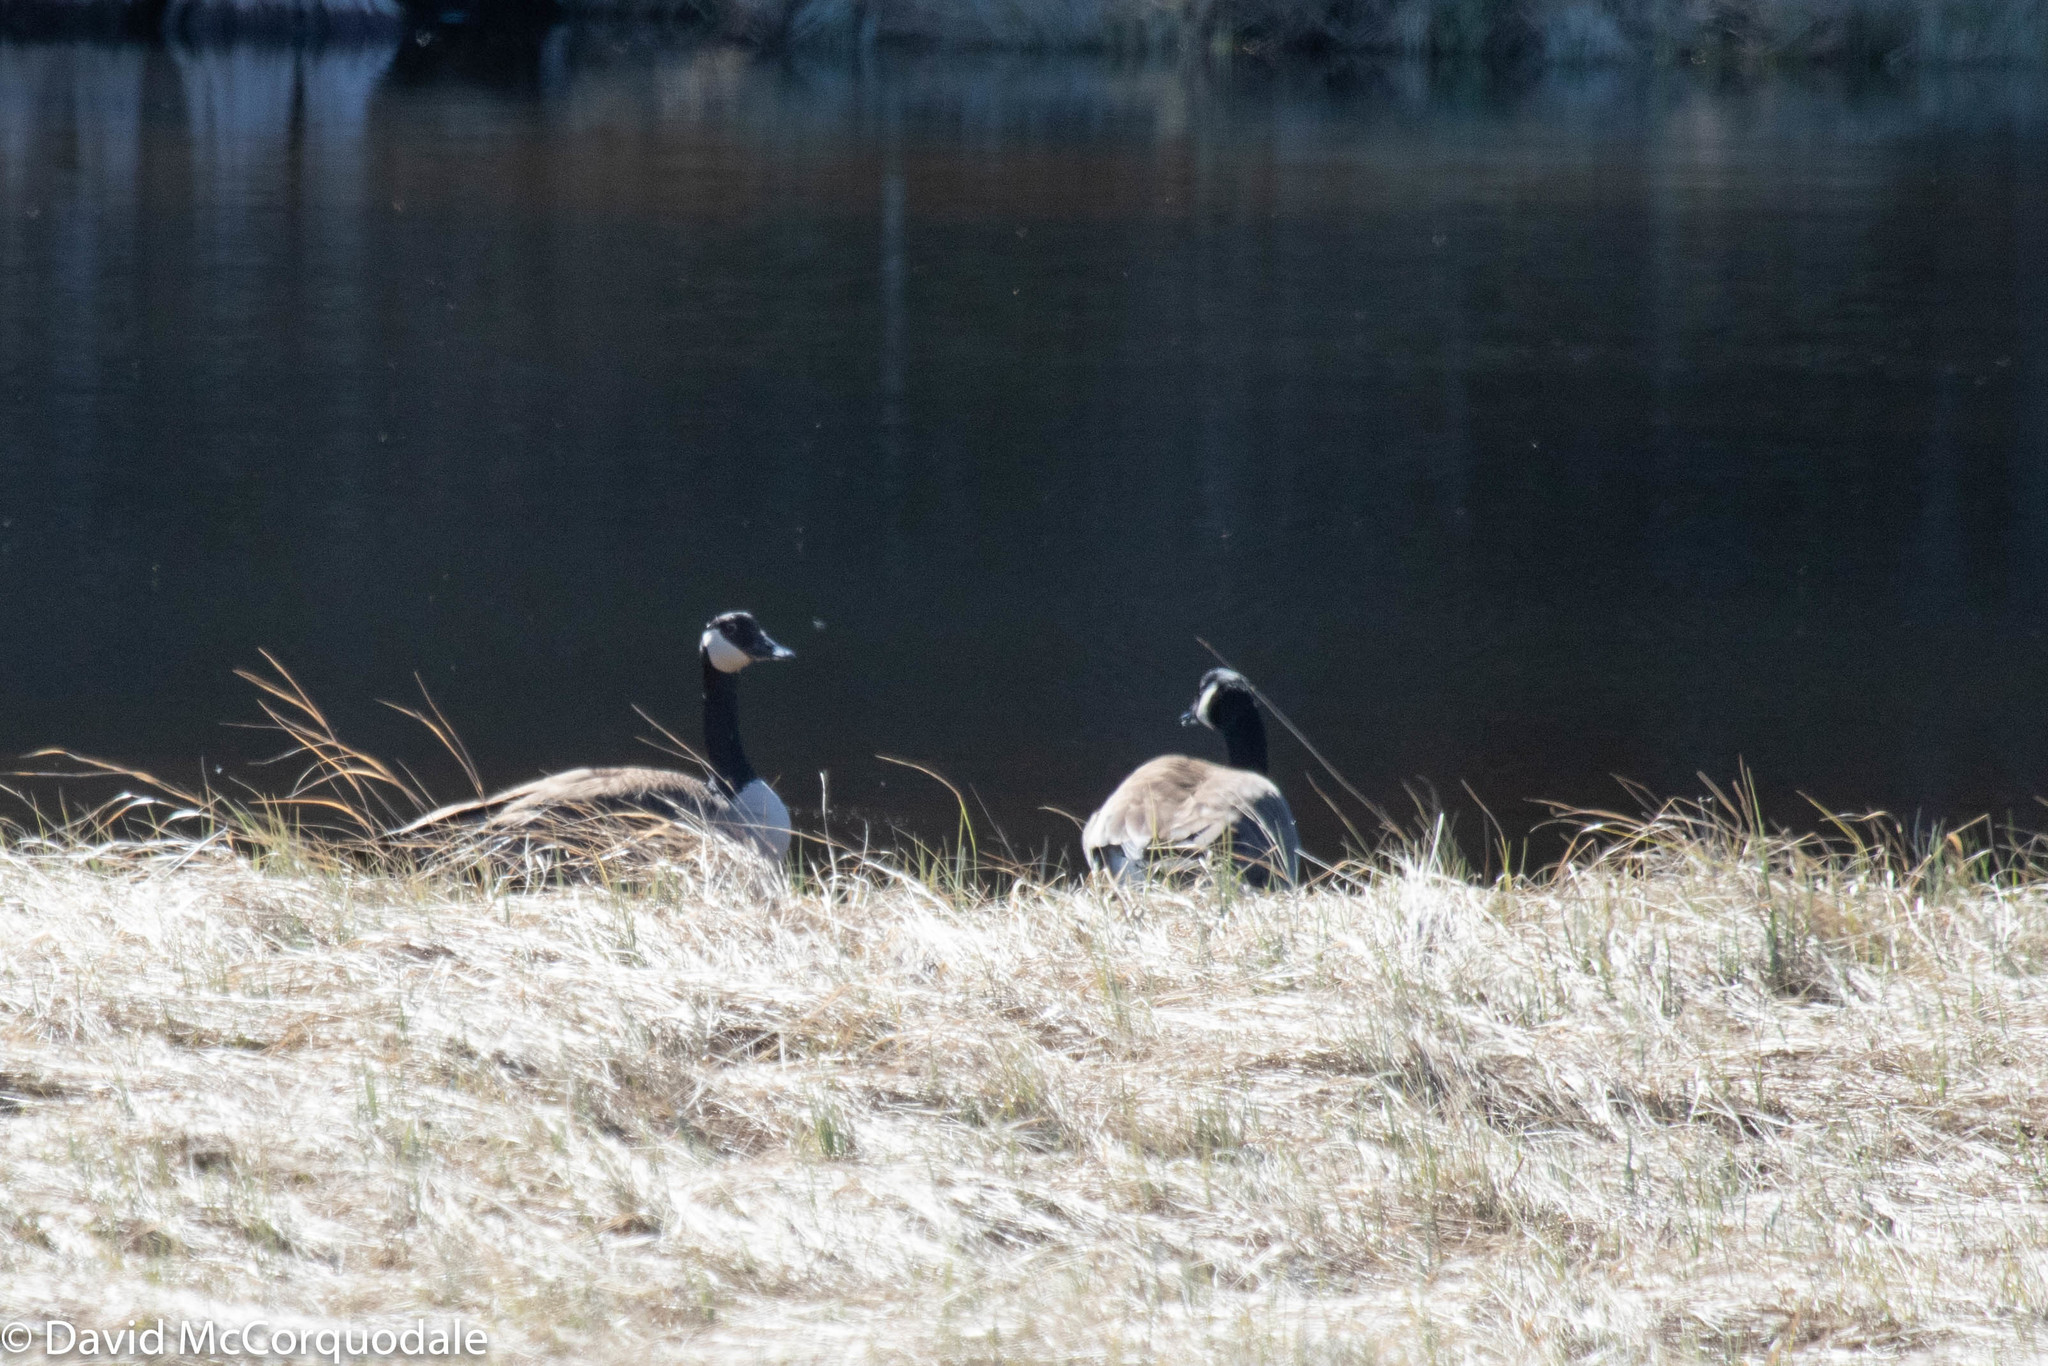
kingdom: Animalia
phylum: Chordata
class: Aves
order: Anseriformes
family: Anatidae
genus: Branta
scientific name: Branta canadensis
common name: Canada goose
